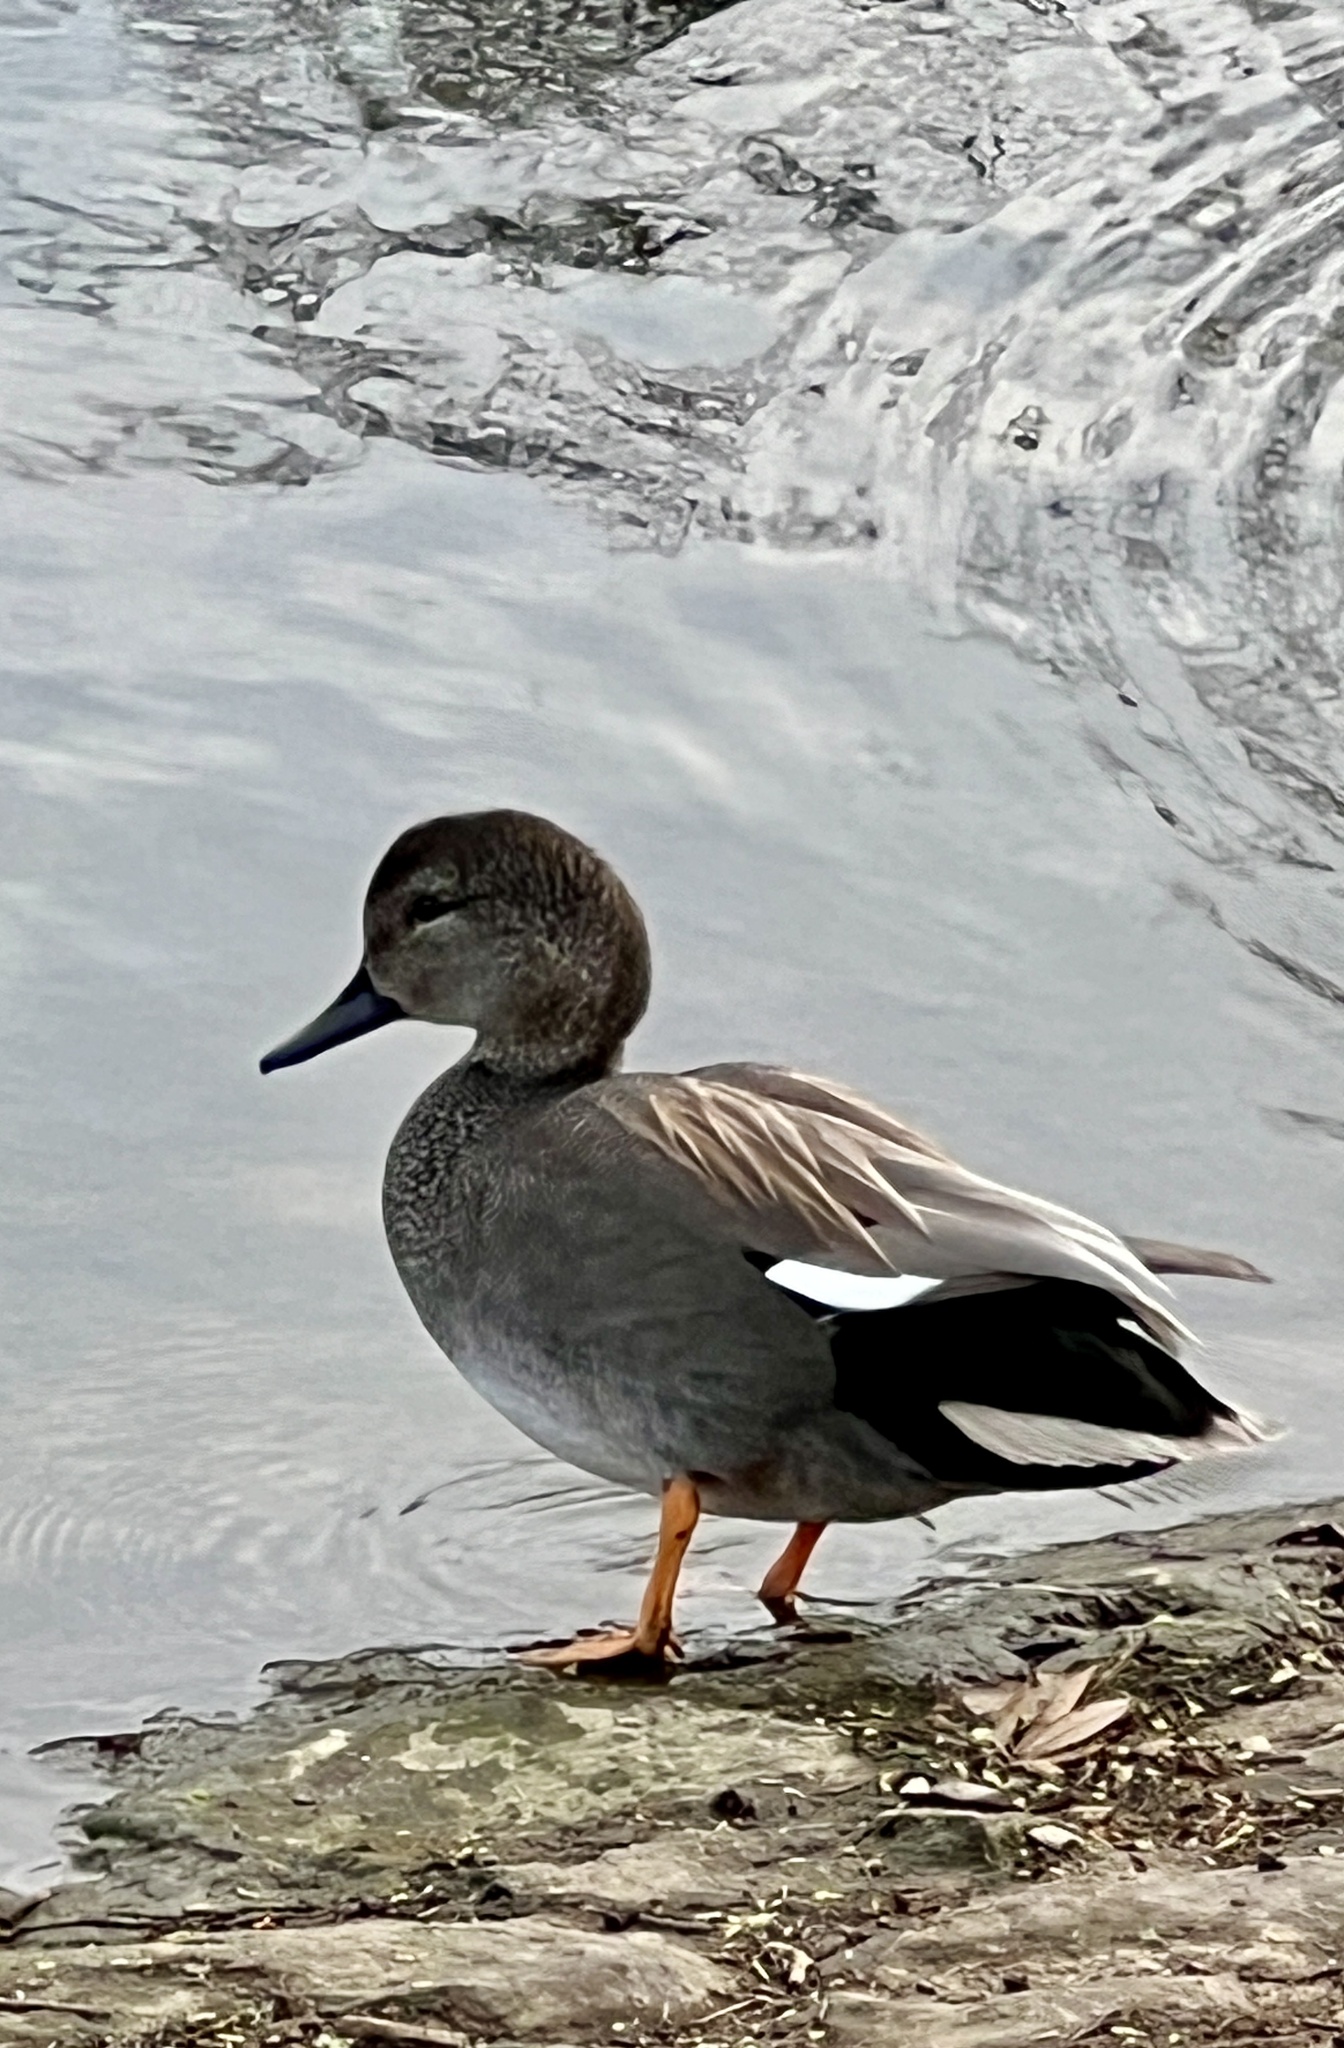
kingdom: Animalia
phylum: Chordata
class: Aves
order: Anseriformes
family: Anatidae
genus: Mareca
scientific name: Mareca strepera
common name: Gadwall
